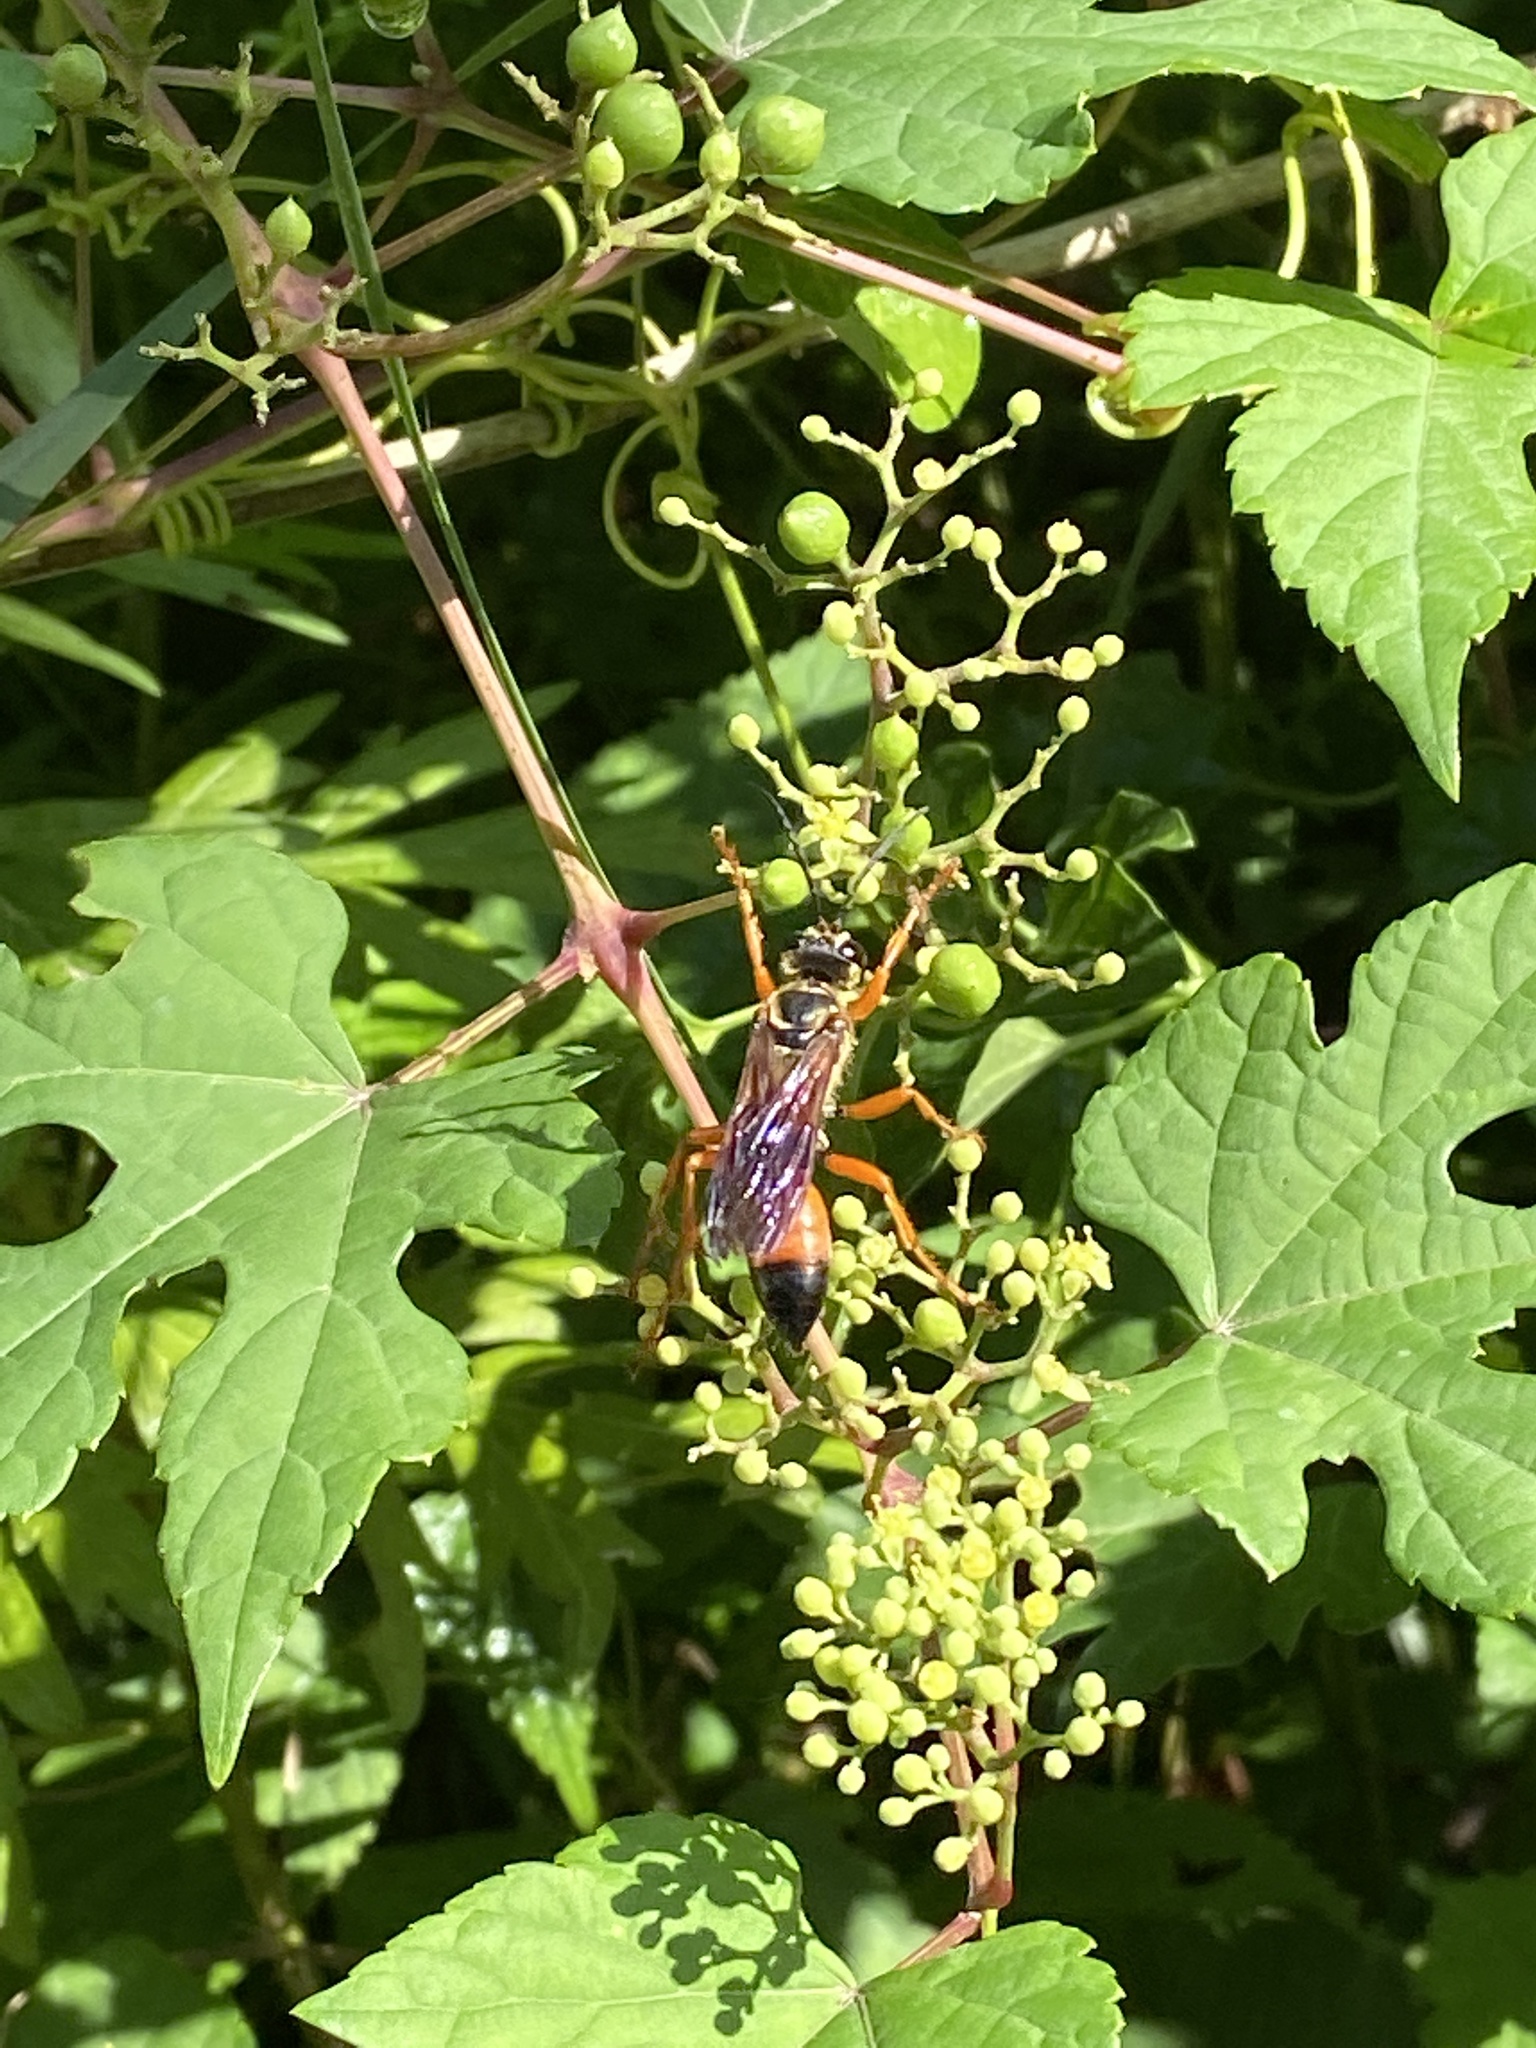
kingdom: Animalia
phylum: Arthropoda
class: Insecta
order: Hymenoptera
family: Sphecidae
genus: Sphex
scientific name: Sphex ichneumoneus
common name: Great golden digger wasp
